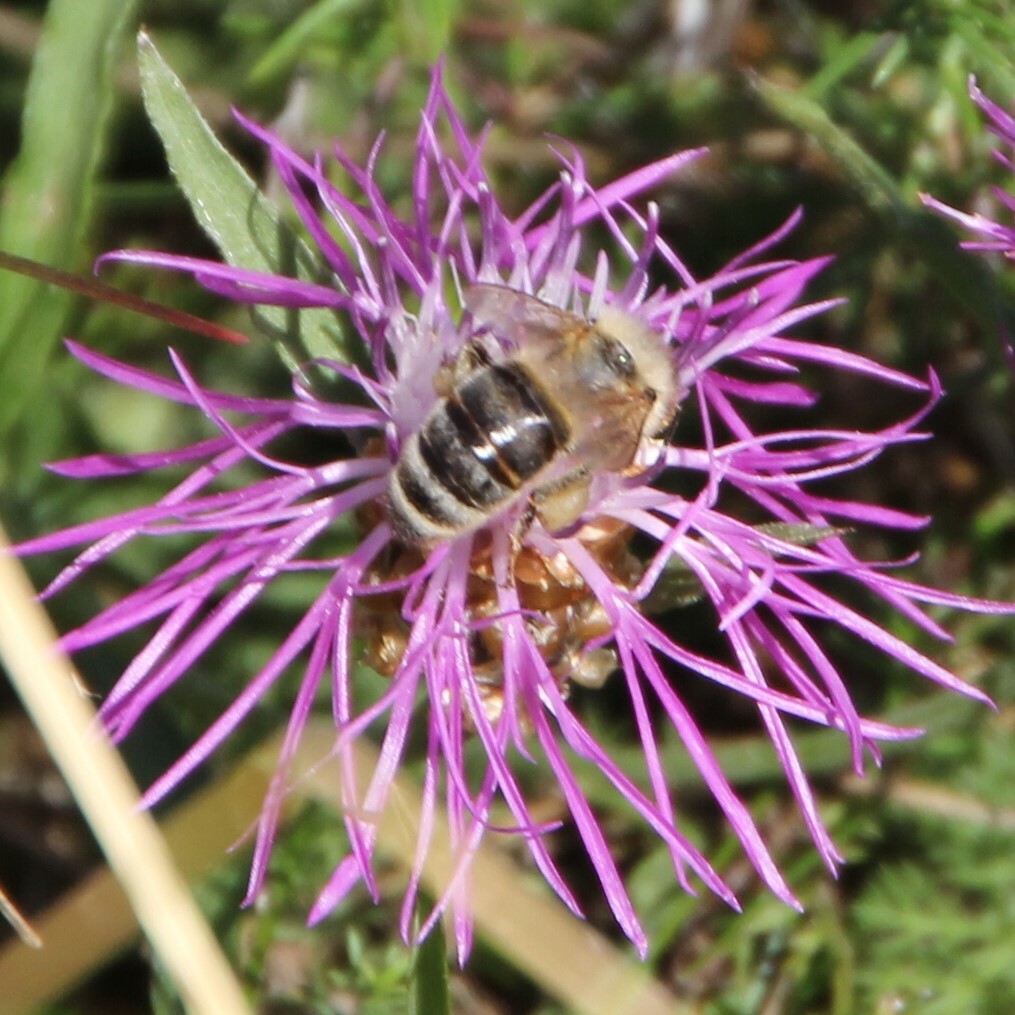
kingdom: Animalia
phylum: Arthropoda
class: Insecta
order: Hymenoptera
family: Apidae
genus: Apis
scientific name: Apis mellifera
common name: Honey bee
